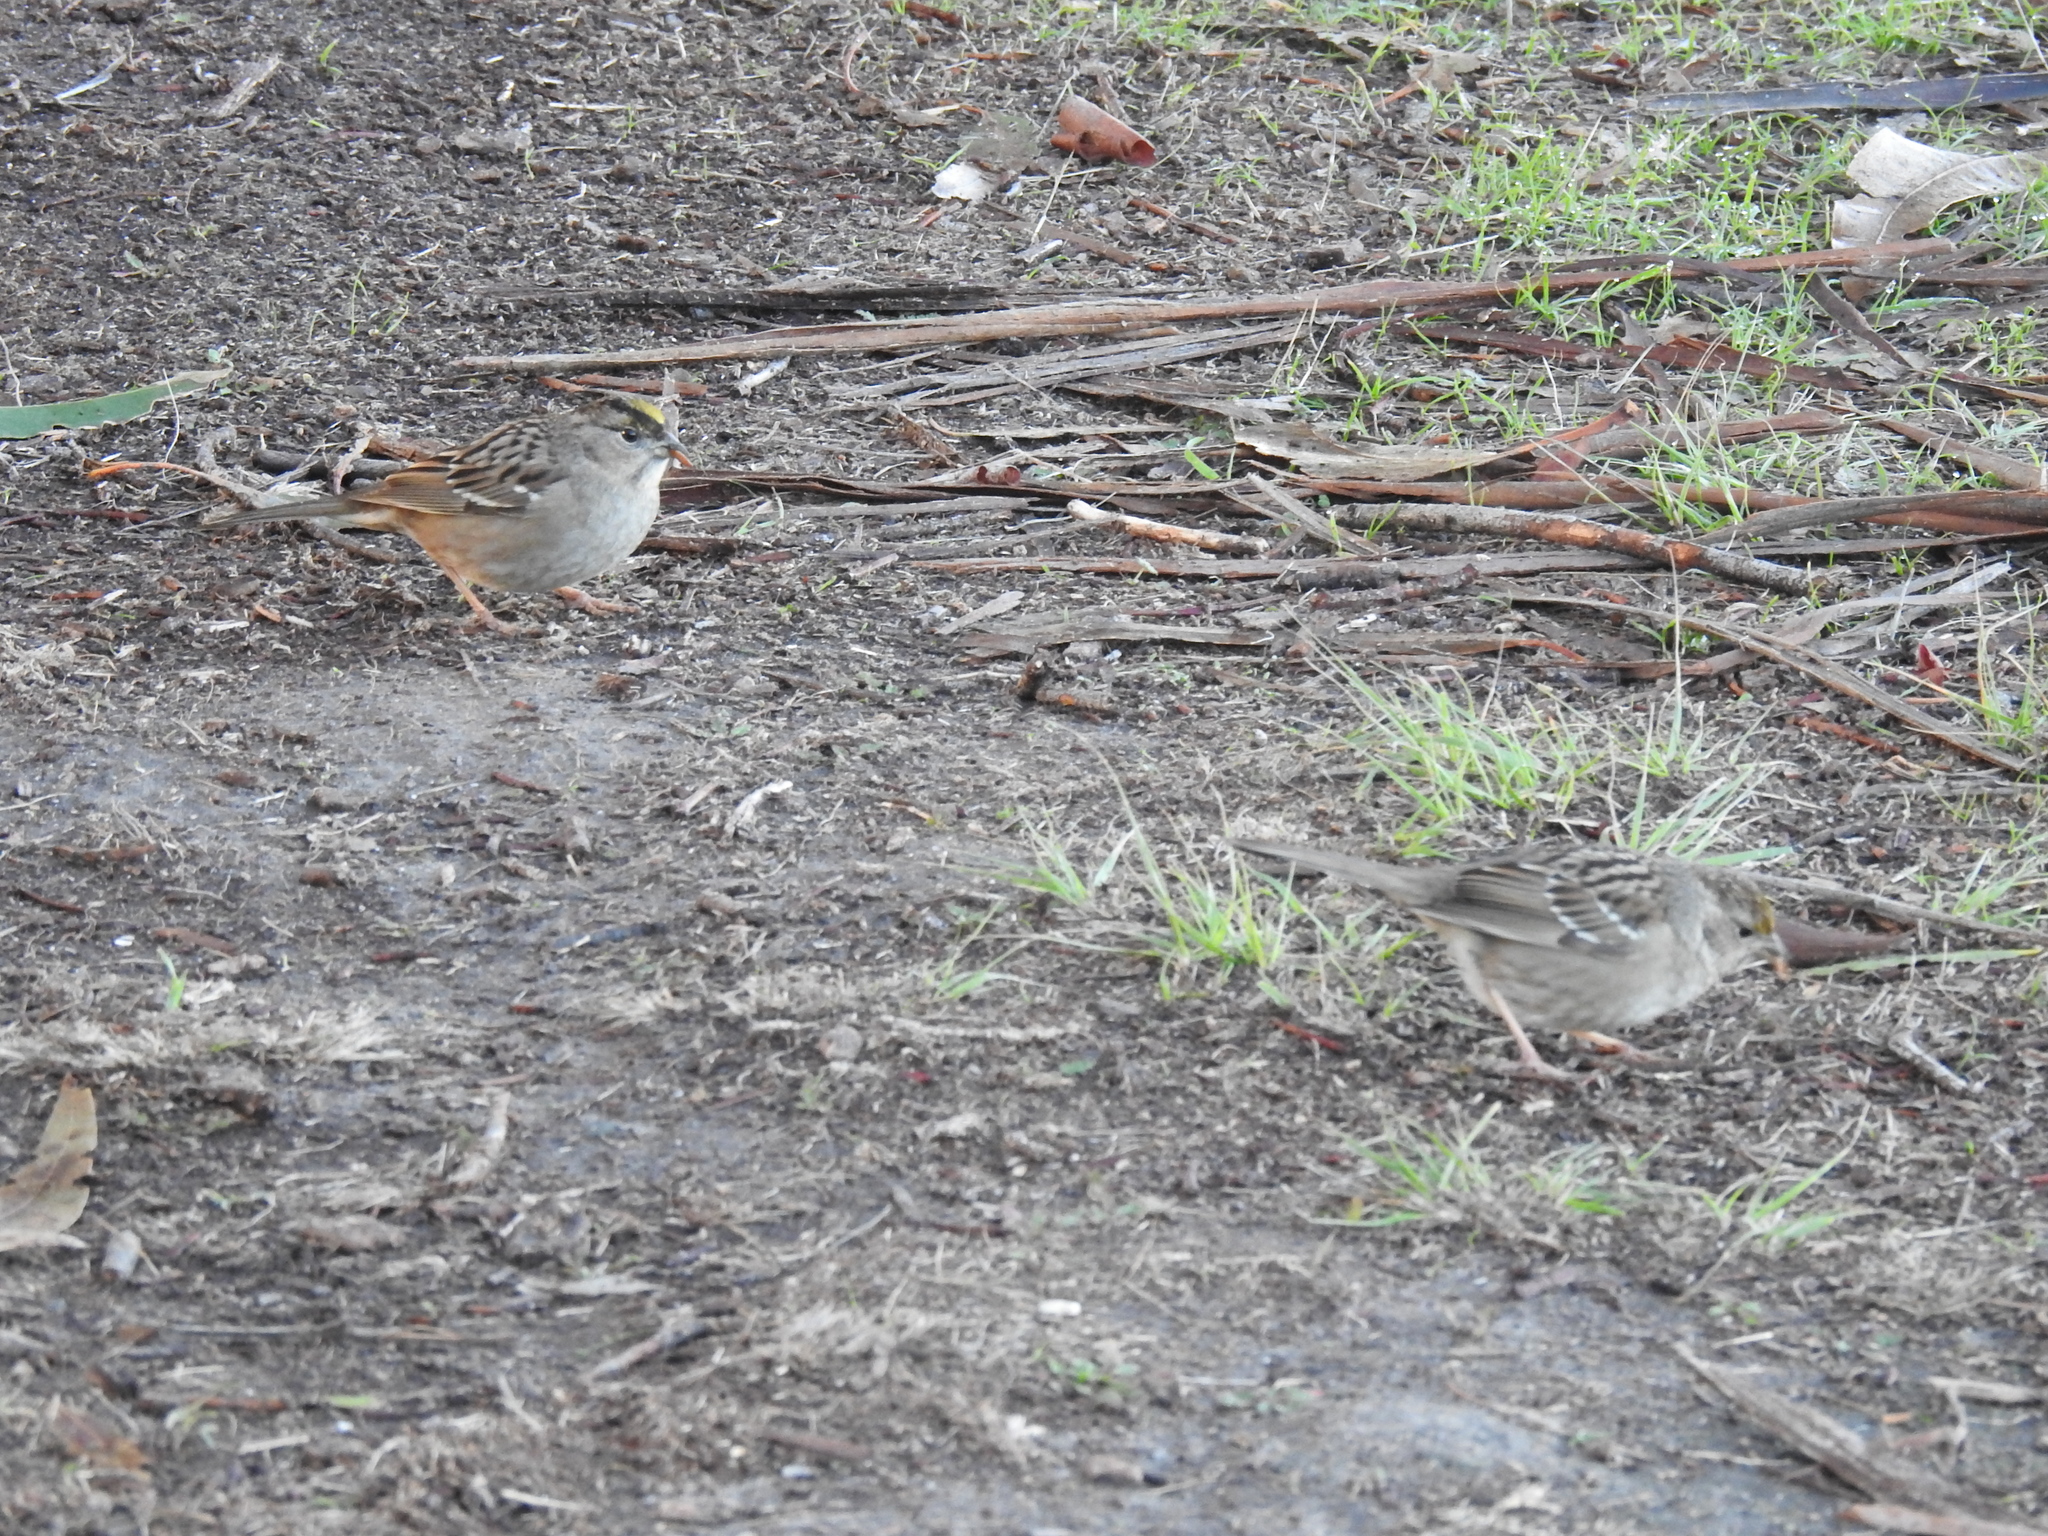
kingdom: Animalia
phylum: Chordata
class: Aves
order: Passeriformes
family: Passerellidae
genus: Zonotrichia
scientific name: Zonotrichia atricapilla
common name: Golden-crowned sparrow
